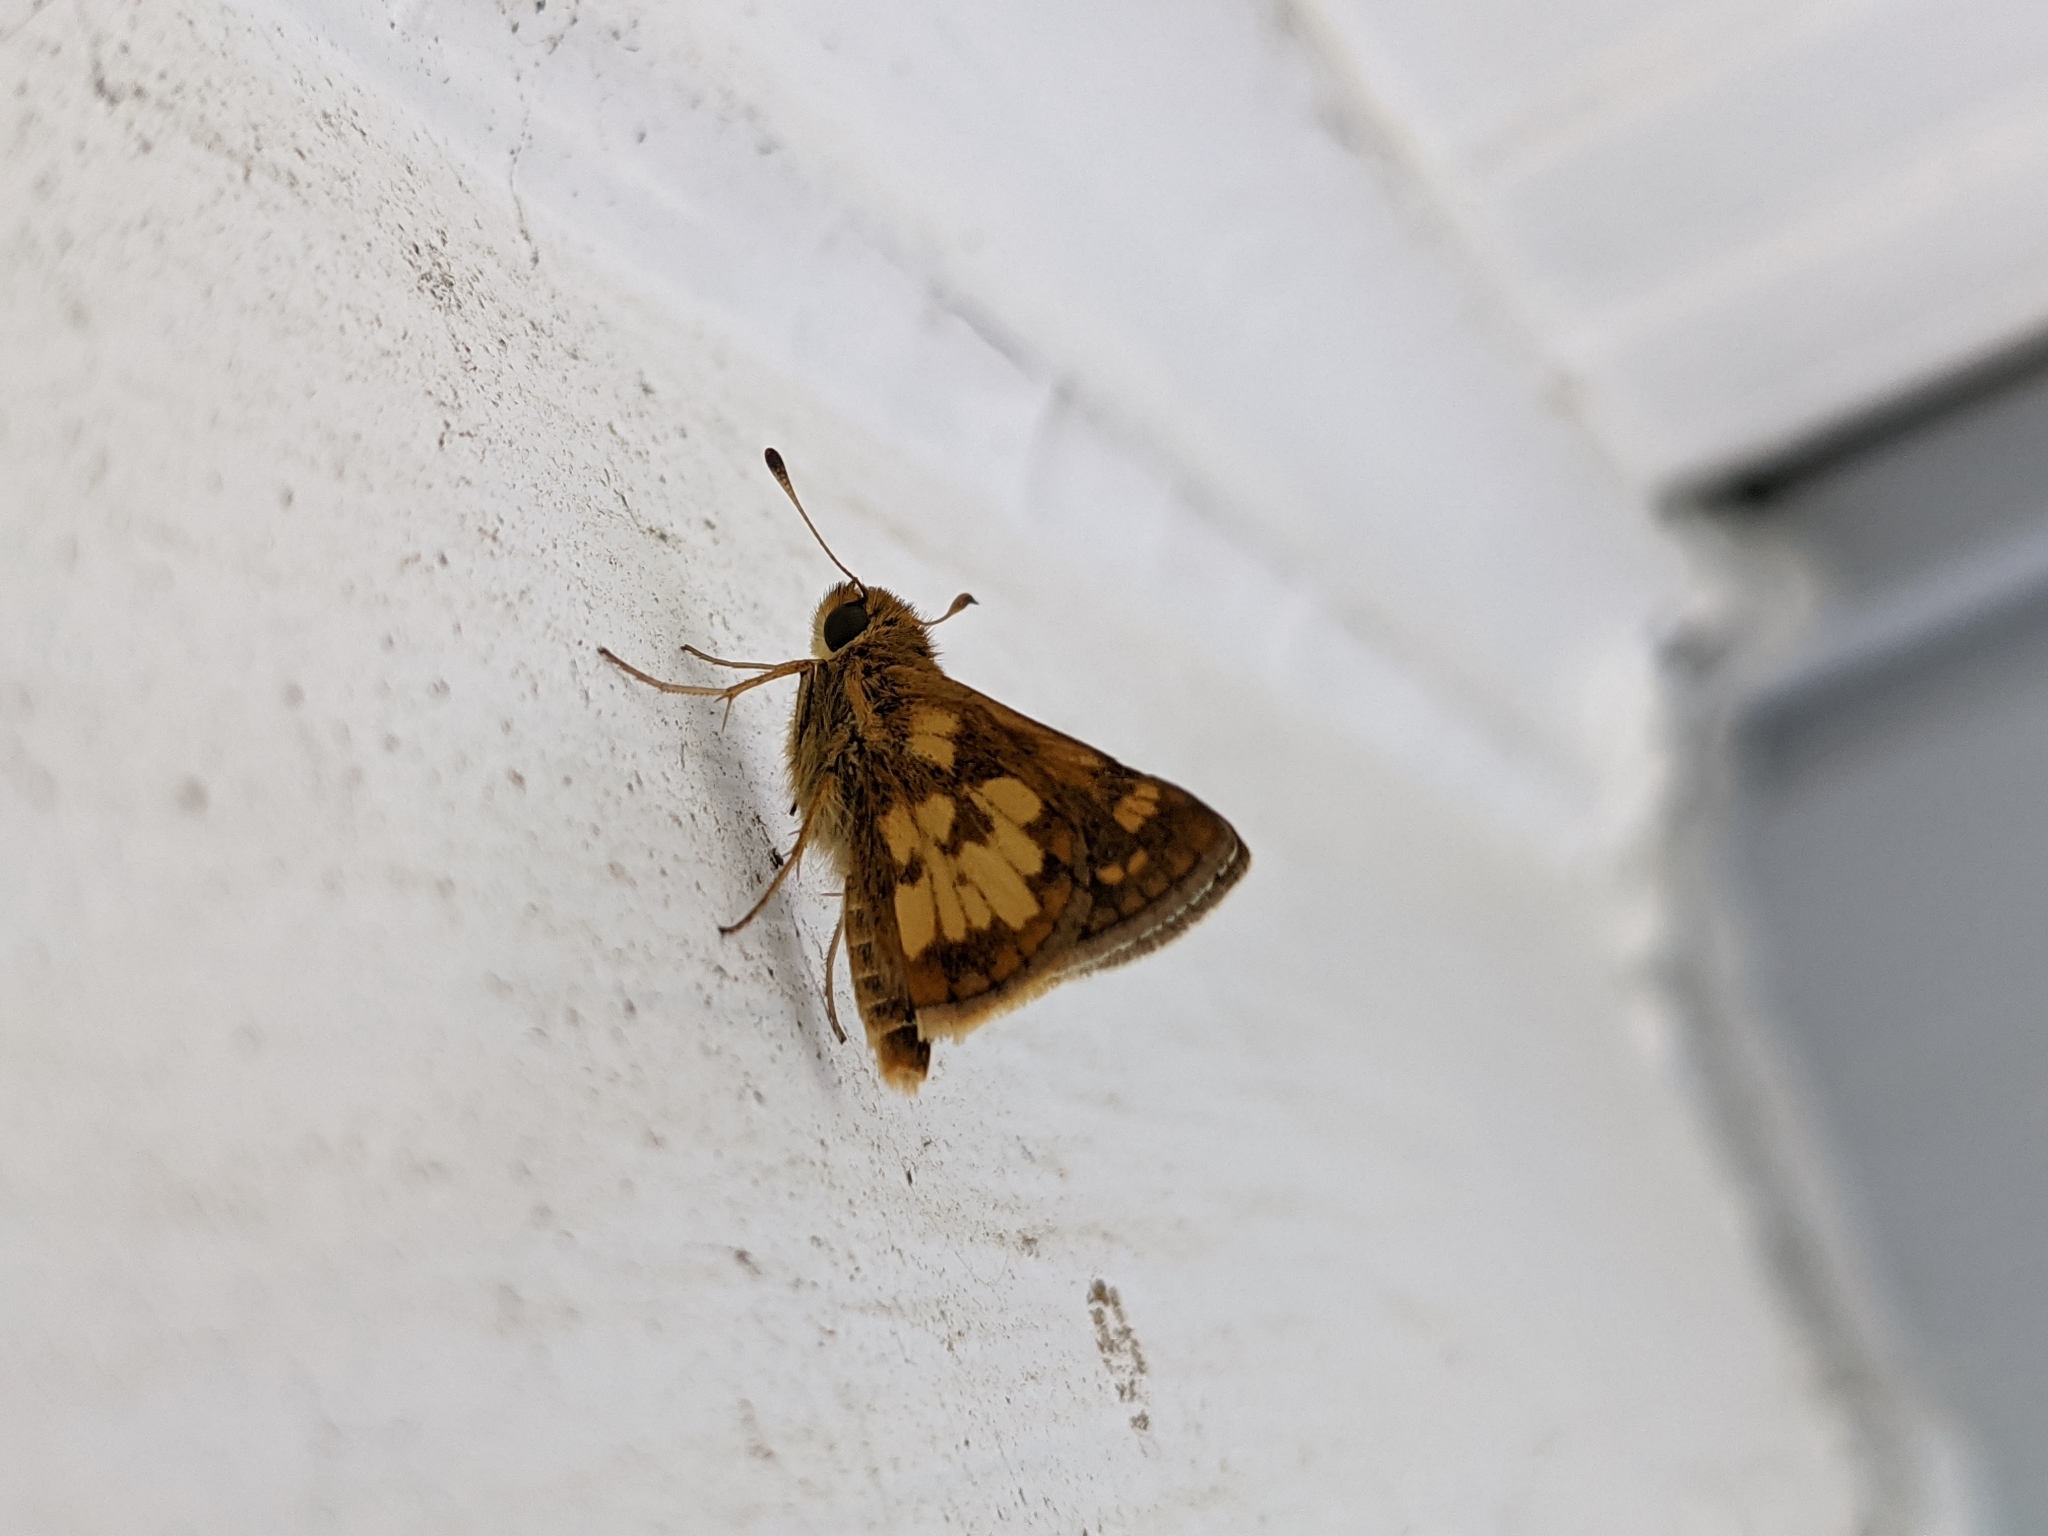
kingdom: Animalia
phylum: Arthropoda
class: Insecta
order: Lepidoptera
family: Hesperiidae
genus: Polites
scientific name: Polites coras
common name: Peck's skipper
